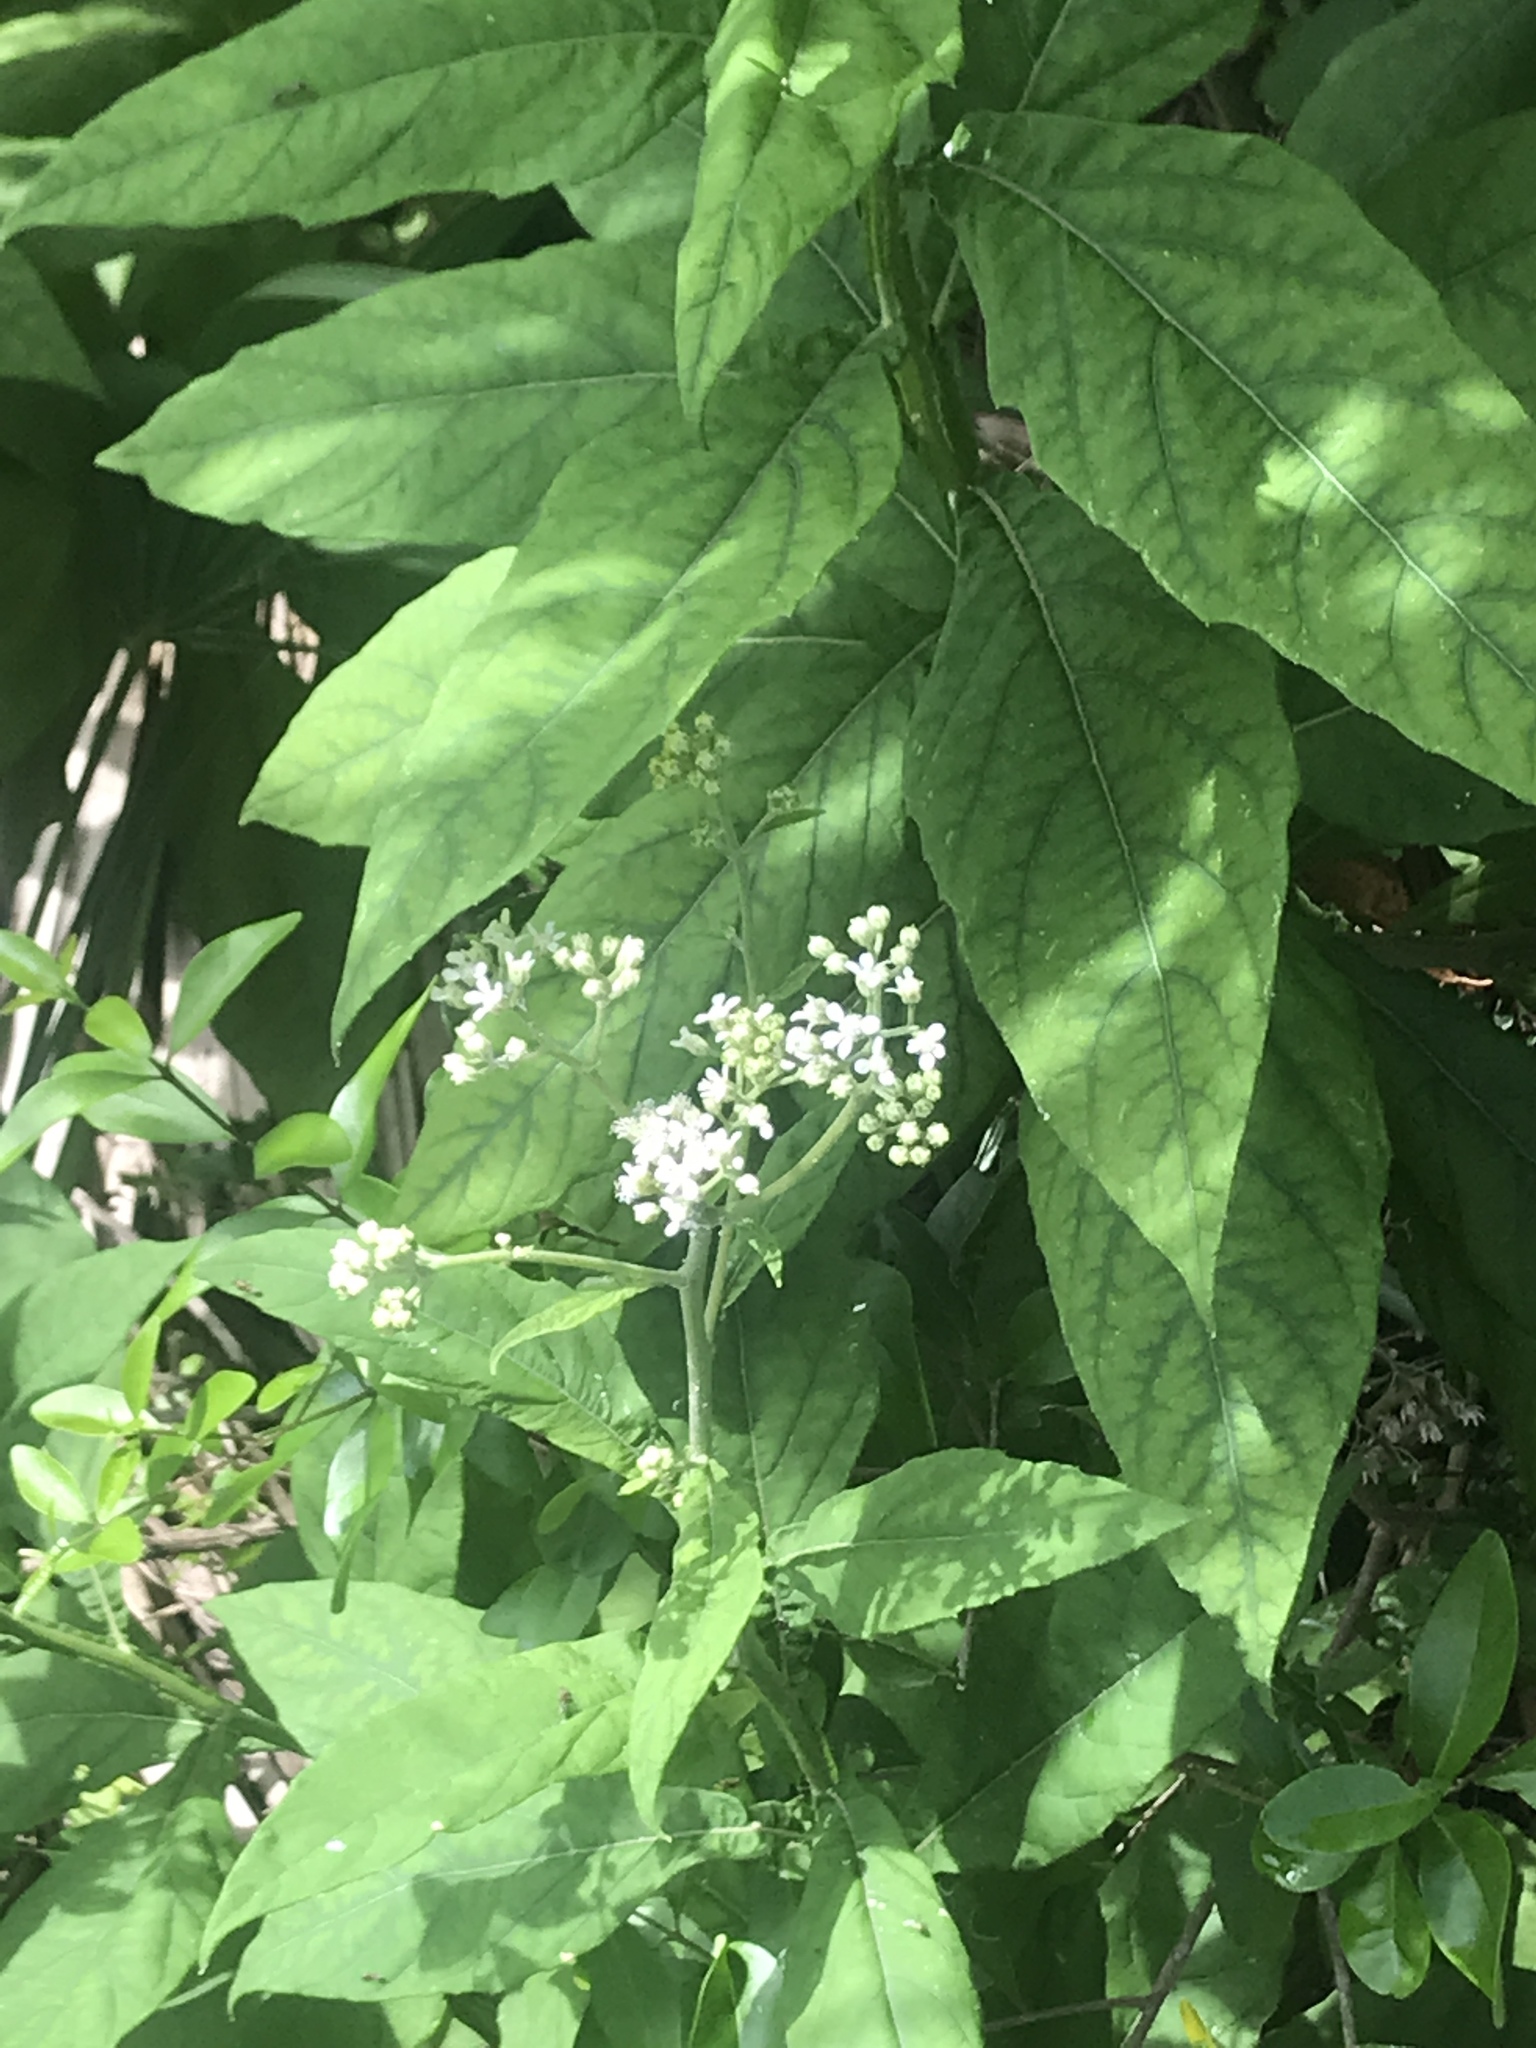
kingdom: Plantae
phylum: Tracheophyta
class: Magnoliopsida
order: Asterales
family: Asteraceae
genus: Verbesina
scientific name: Verbesina virginica
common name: Frostweed
